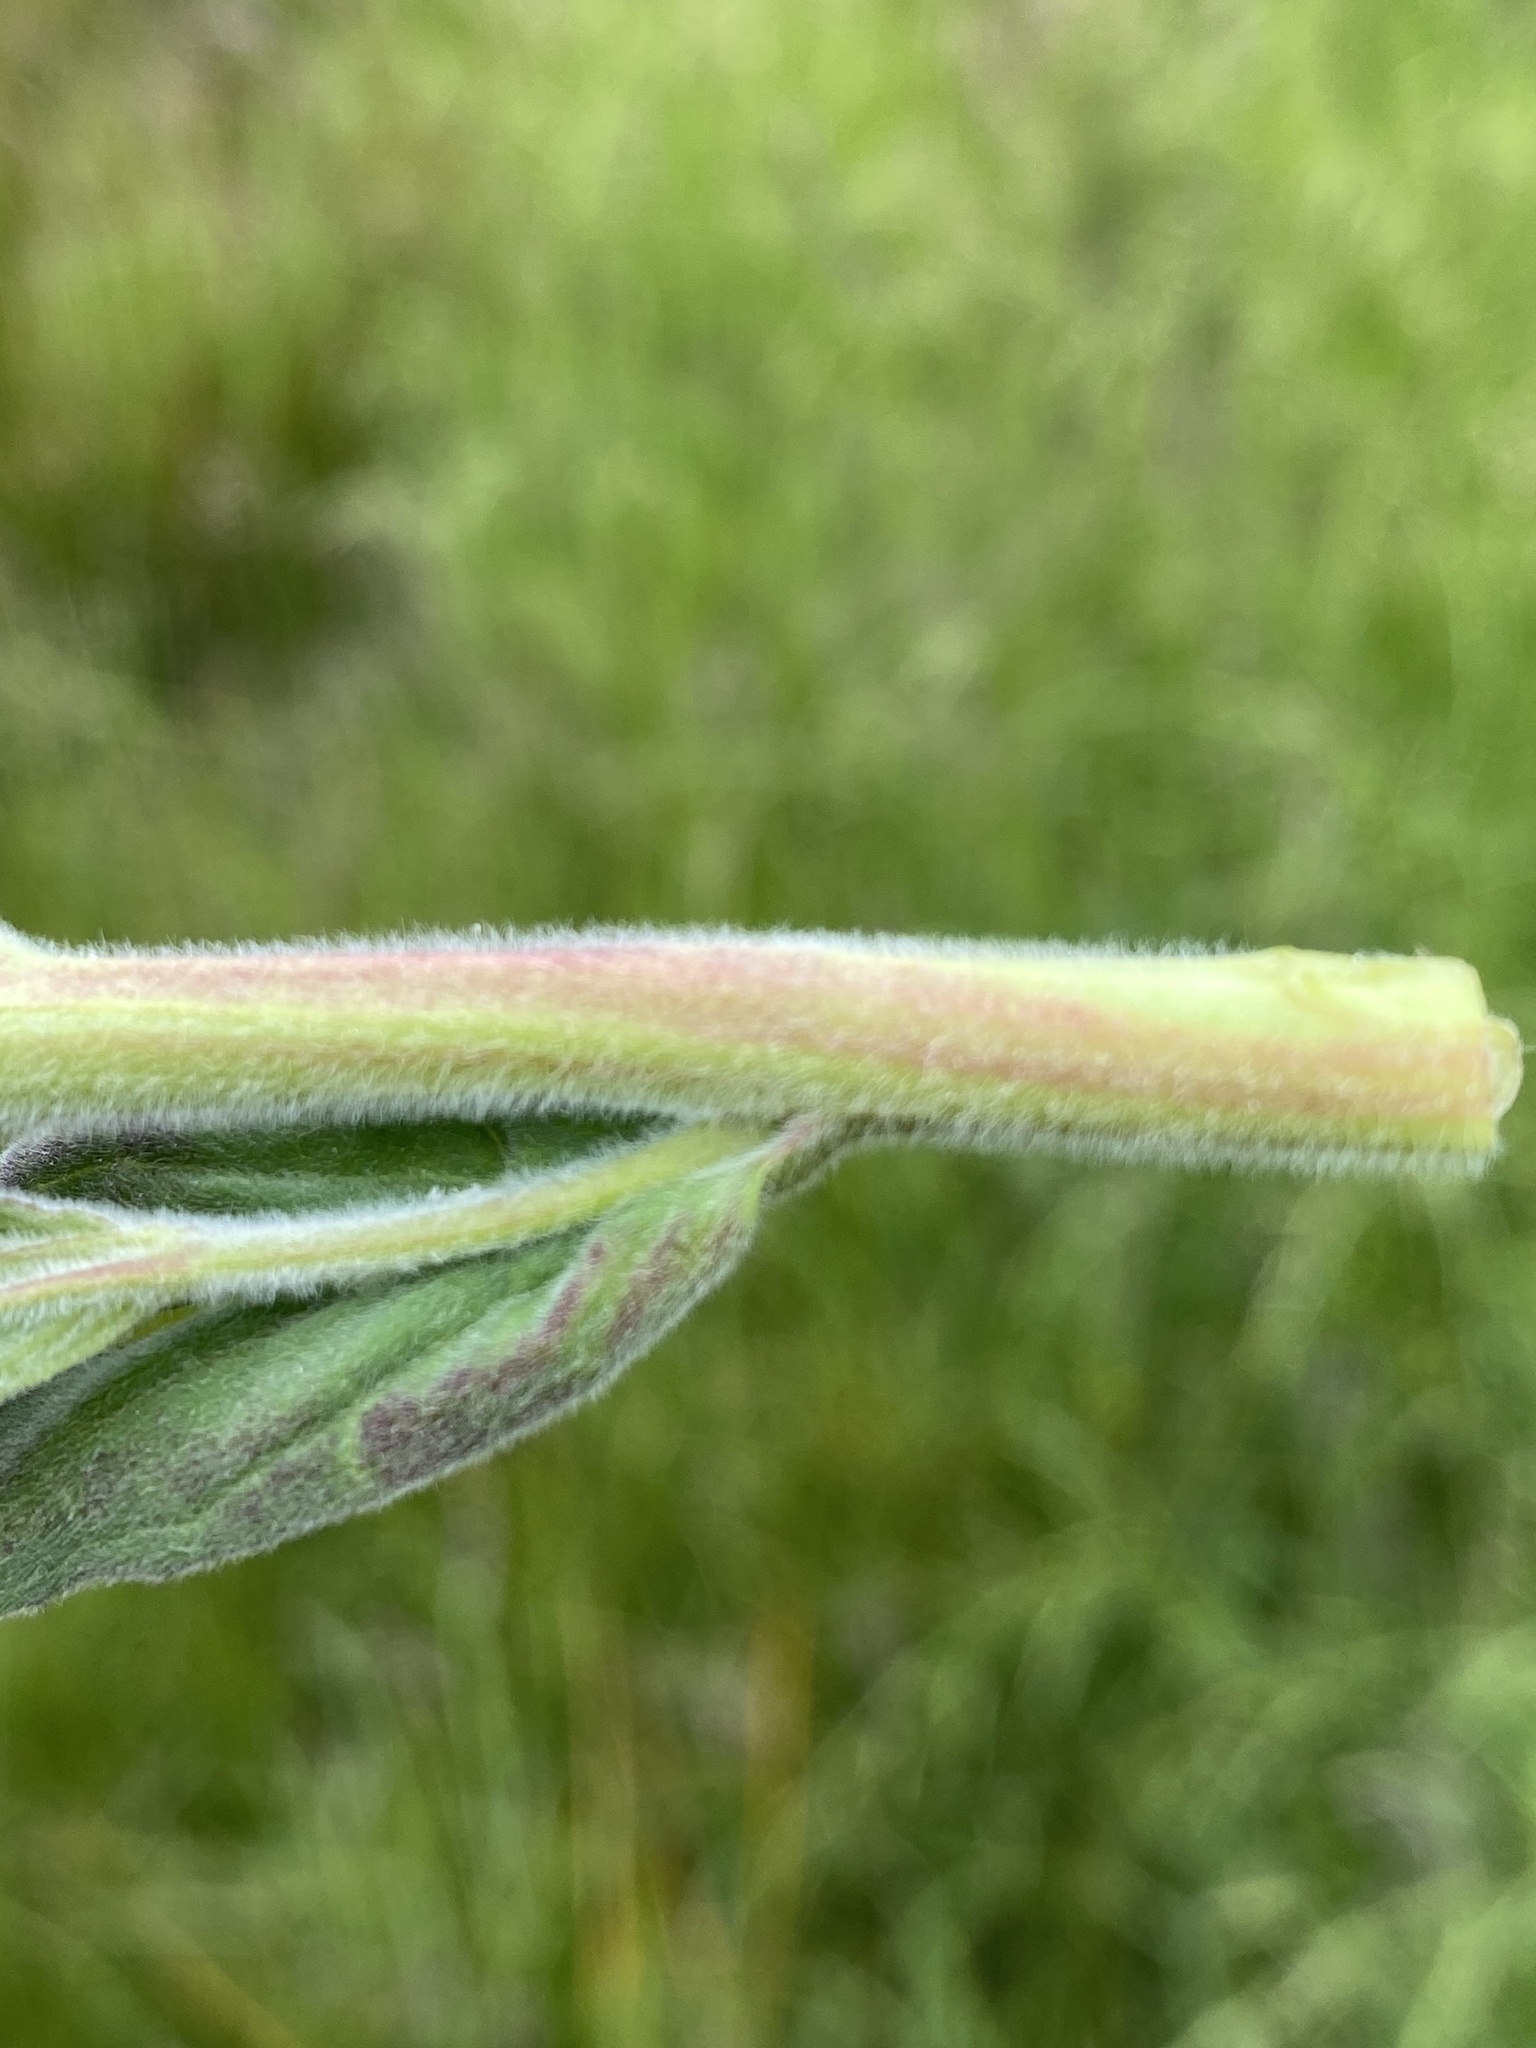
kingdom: Plantae
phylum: Tracheophyta
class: Magnoliopsida
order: Myrtales
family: Onagraceae
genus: Epilobium
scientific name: Epilobium parviflorum
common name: Hoary willowherb
